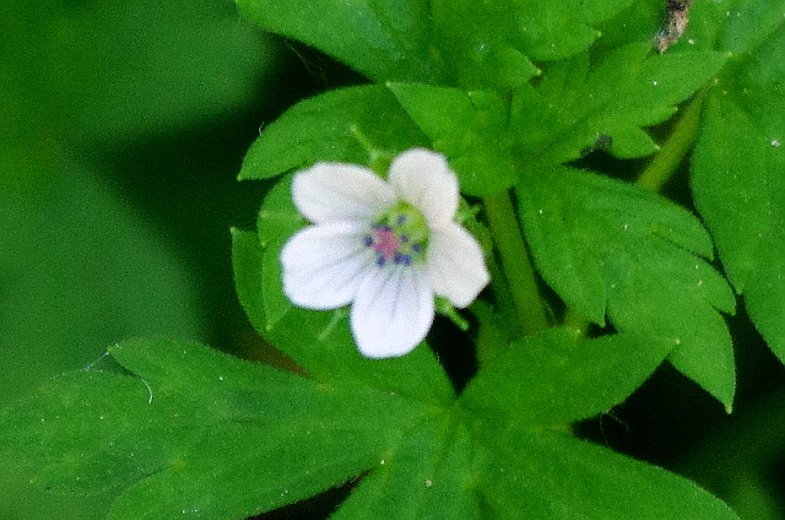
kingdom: Plantae
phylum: Tracheophyta
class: Magnoliopsida
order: Geraniales
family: Geraniaceae
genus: Geranium
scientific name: Geranium sibiricum
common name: Siberian crane's-bill
